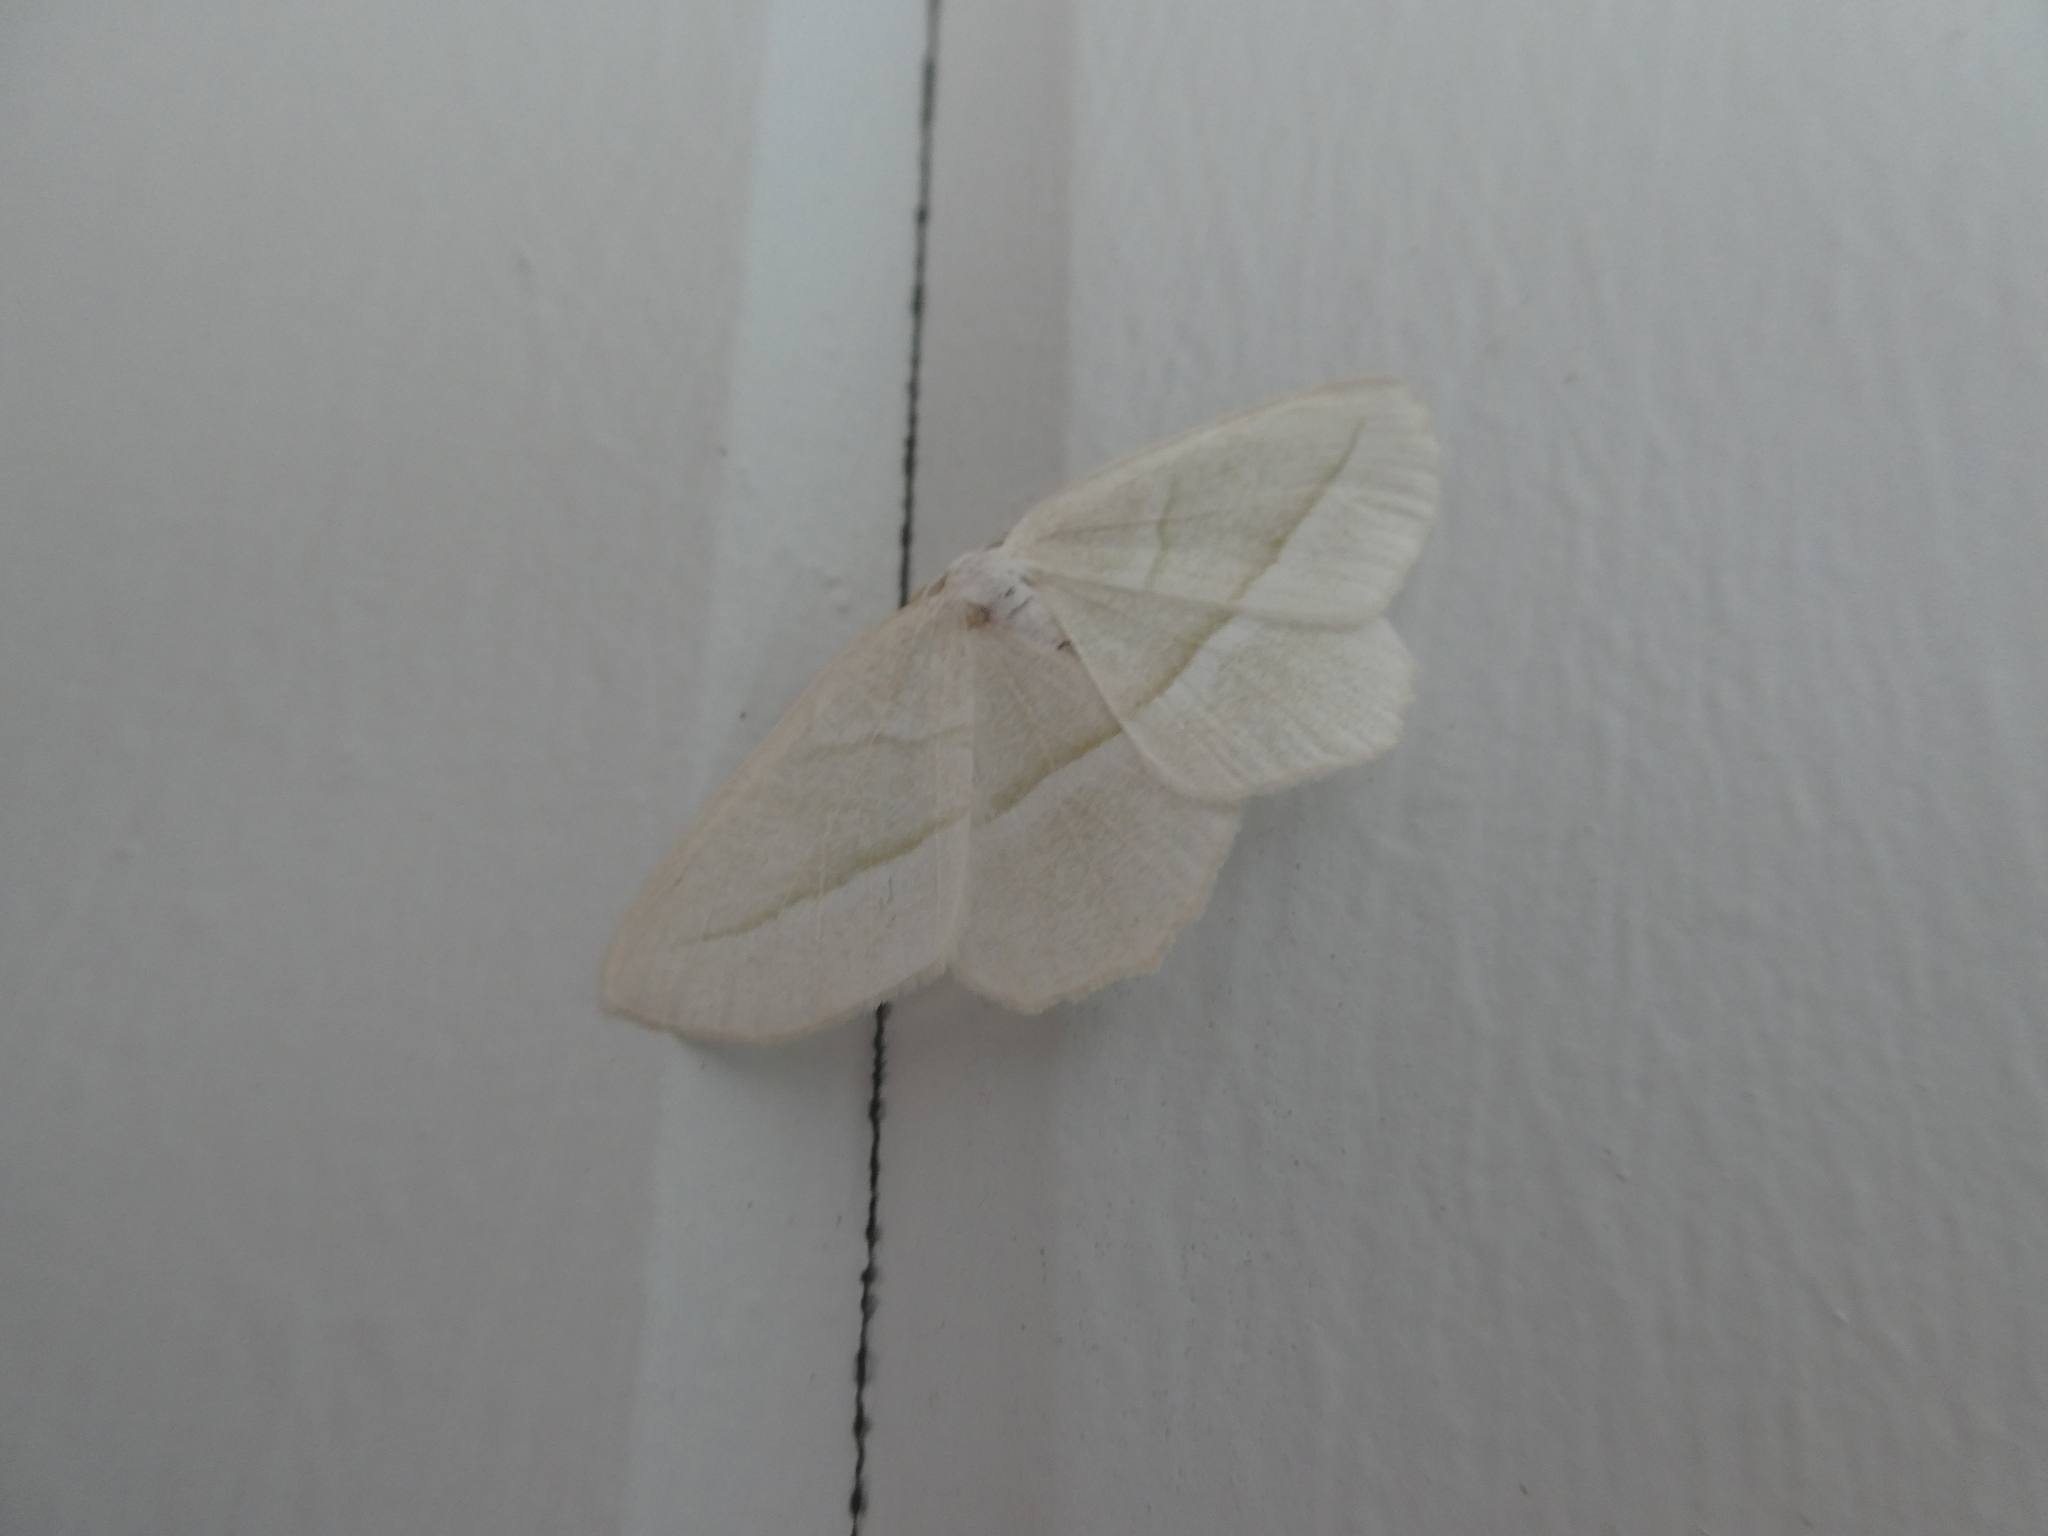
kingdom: Animalia
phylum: Arthropoda
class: Insecta
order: Lepidoptera
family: Geometridae
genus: Campaea
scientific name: Campaea perlata
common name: Fringed looper
